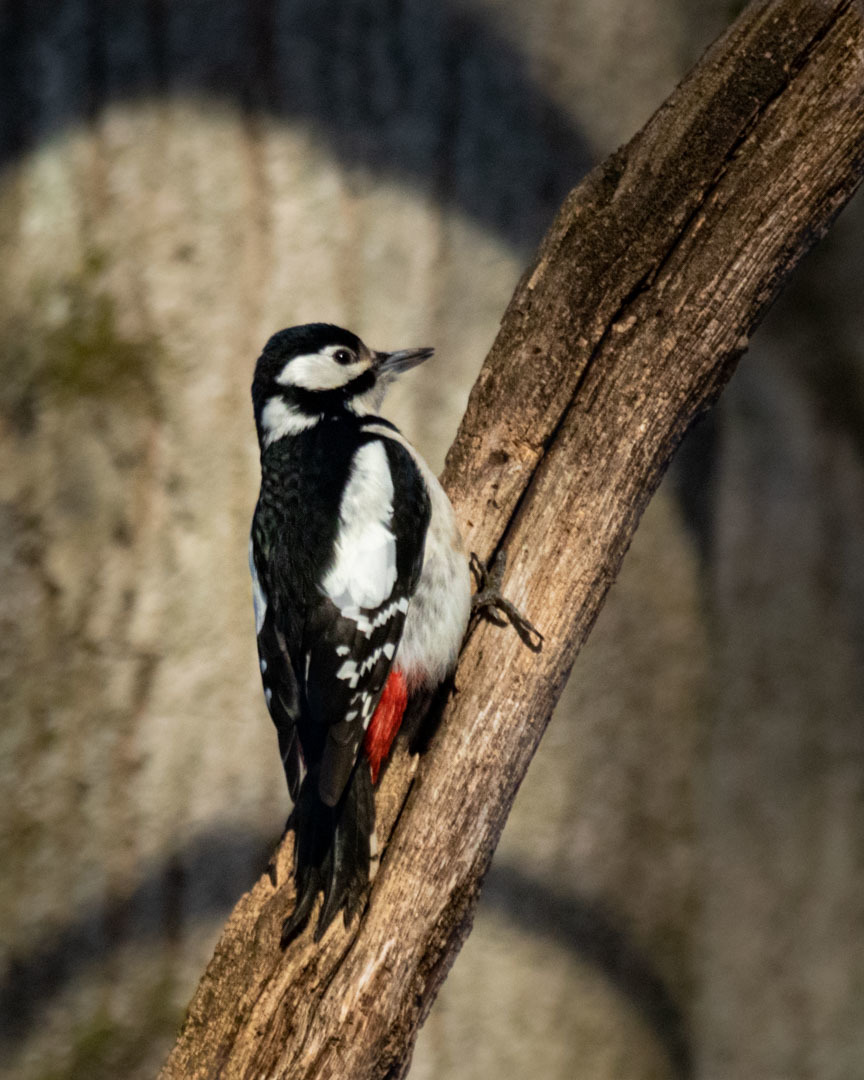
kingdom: Animalia
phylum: Chordata
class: Aves
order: Piciformes
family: Picidae
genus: Dendrocopos
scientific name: Dendrocopos major
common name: Great spotted woodpecker
